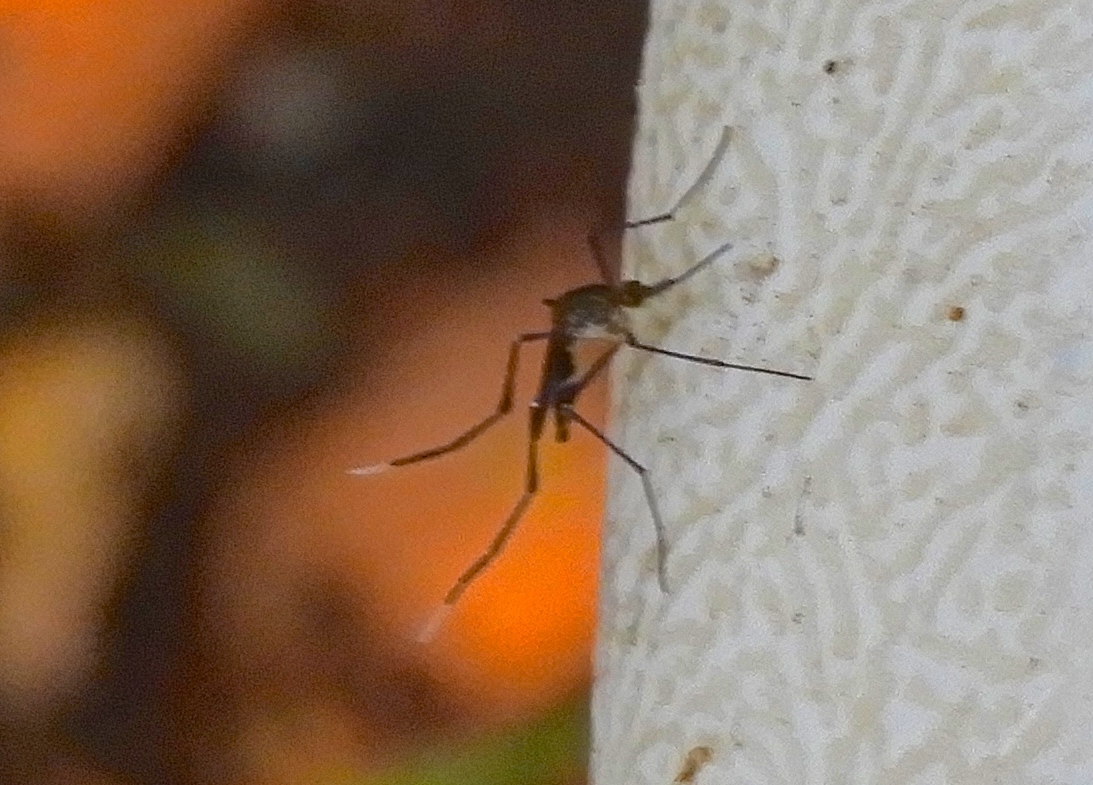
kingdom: Animalia
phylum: Arthropoda
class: Insecta
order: Diptera
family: Culicidae
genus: Psorophora
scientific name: Psorophora ferox
